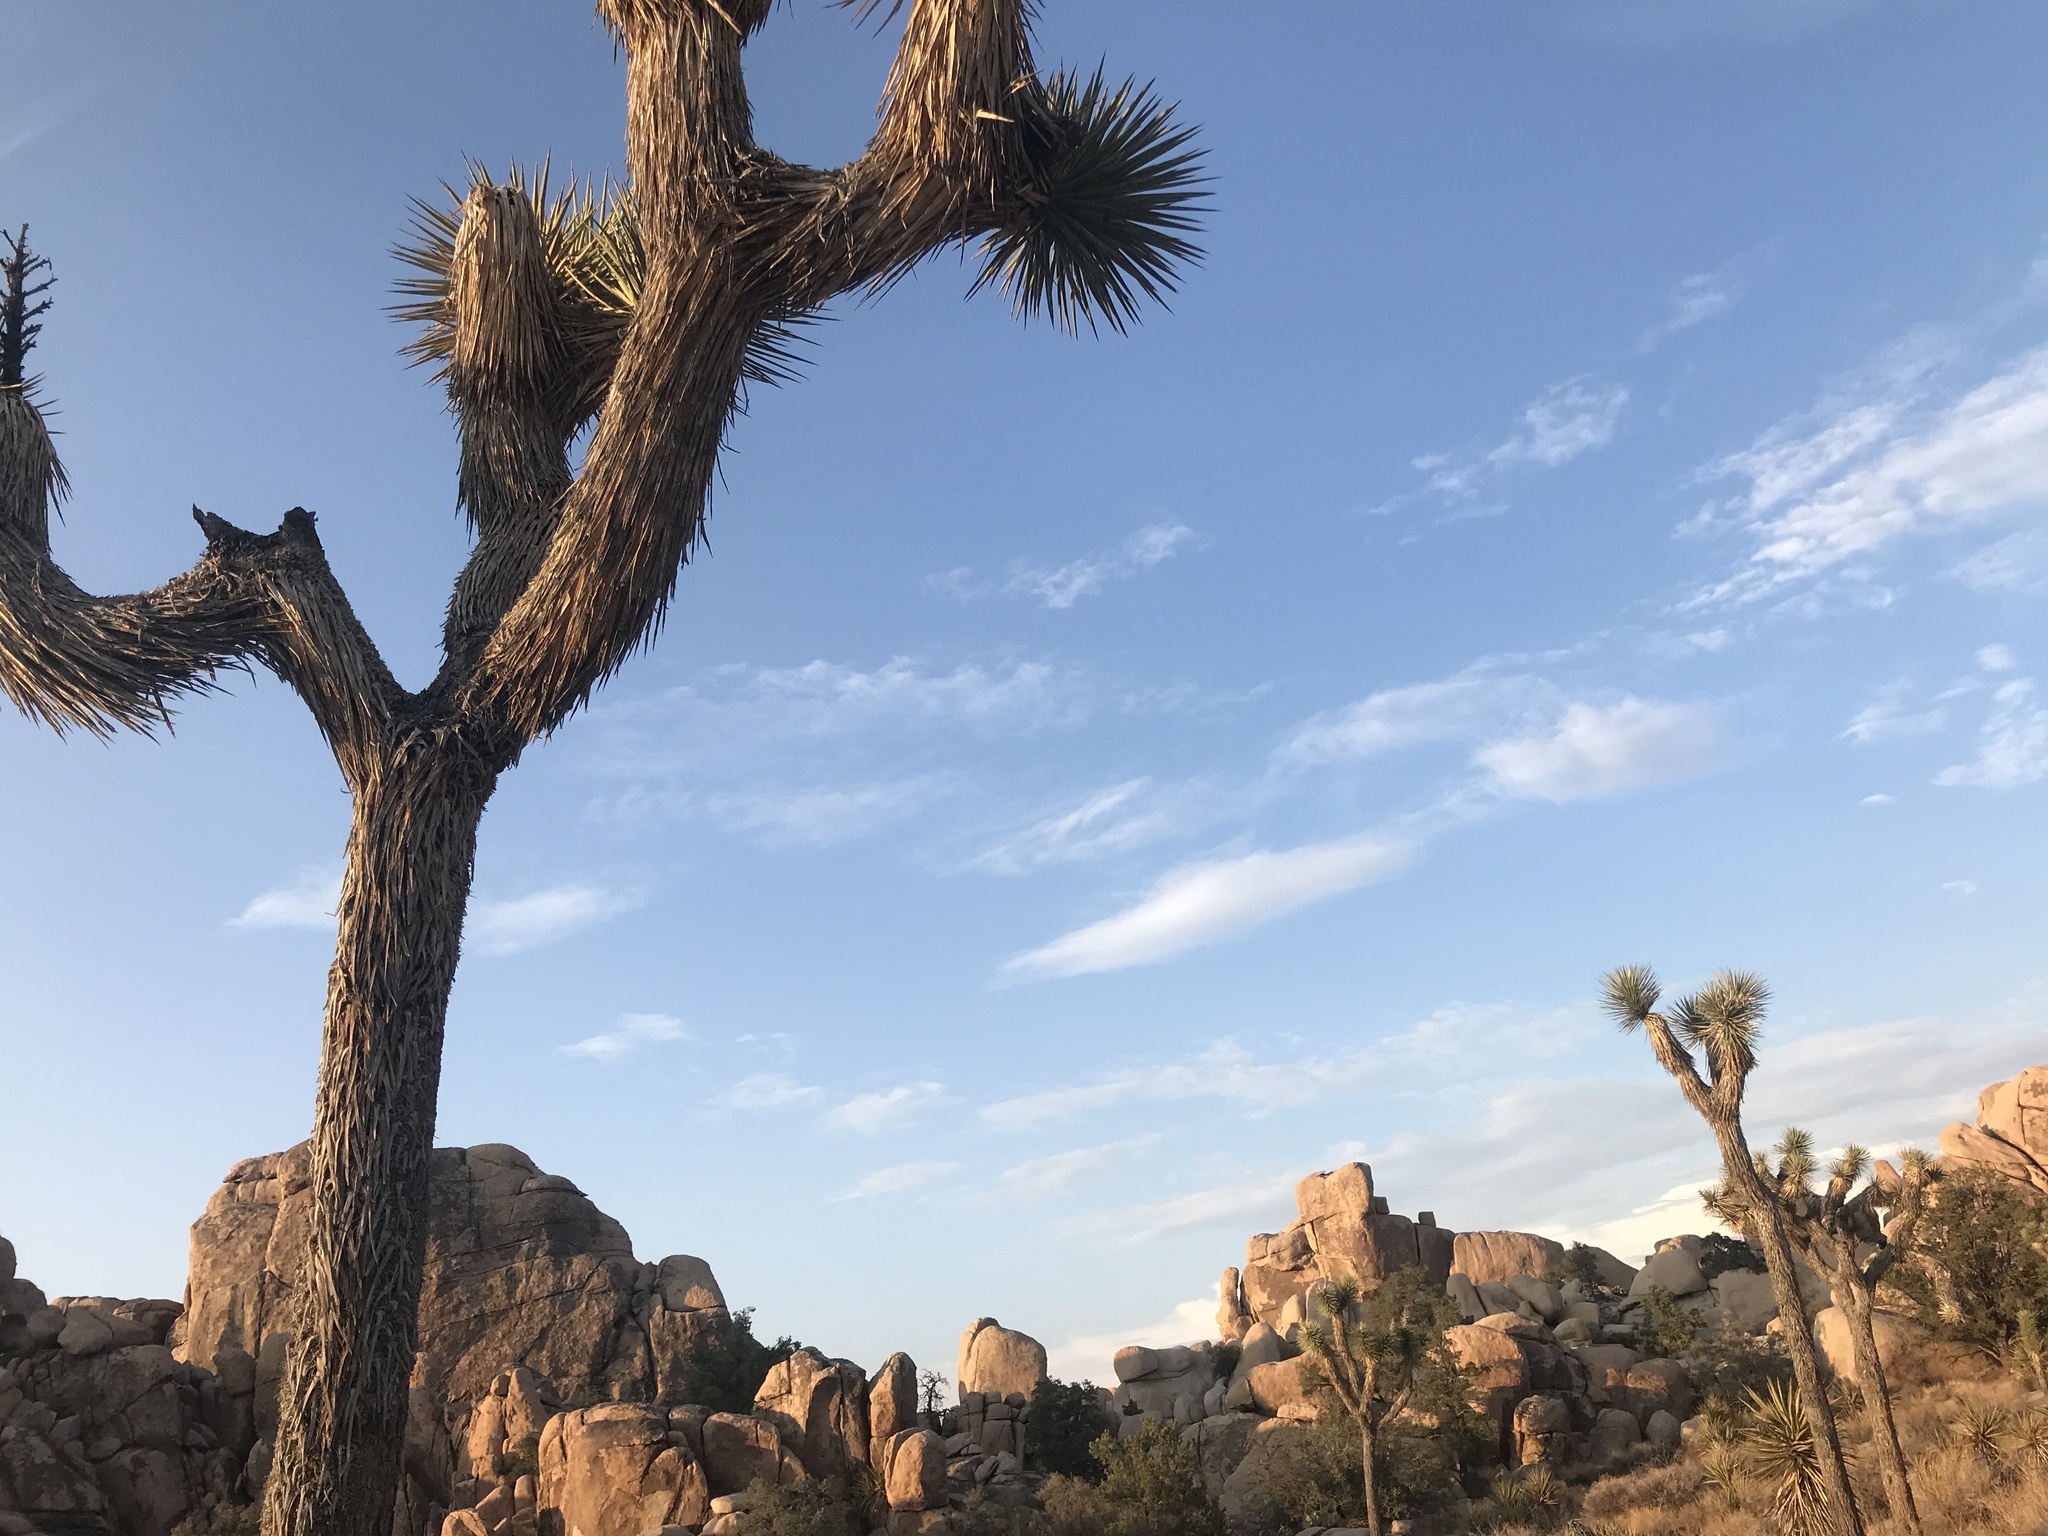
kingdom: Plantae
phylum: Tracheophyta
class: Liliopsida
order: Asparagales
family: Asparagaceae
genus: Yucca
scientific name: Yucca brevifolia
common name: Joshua tree
